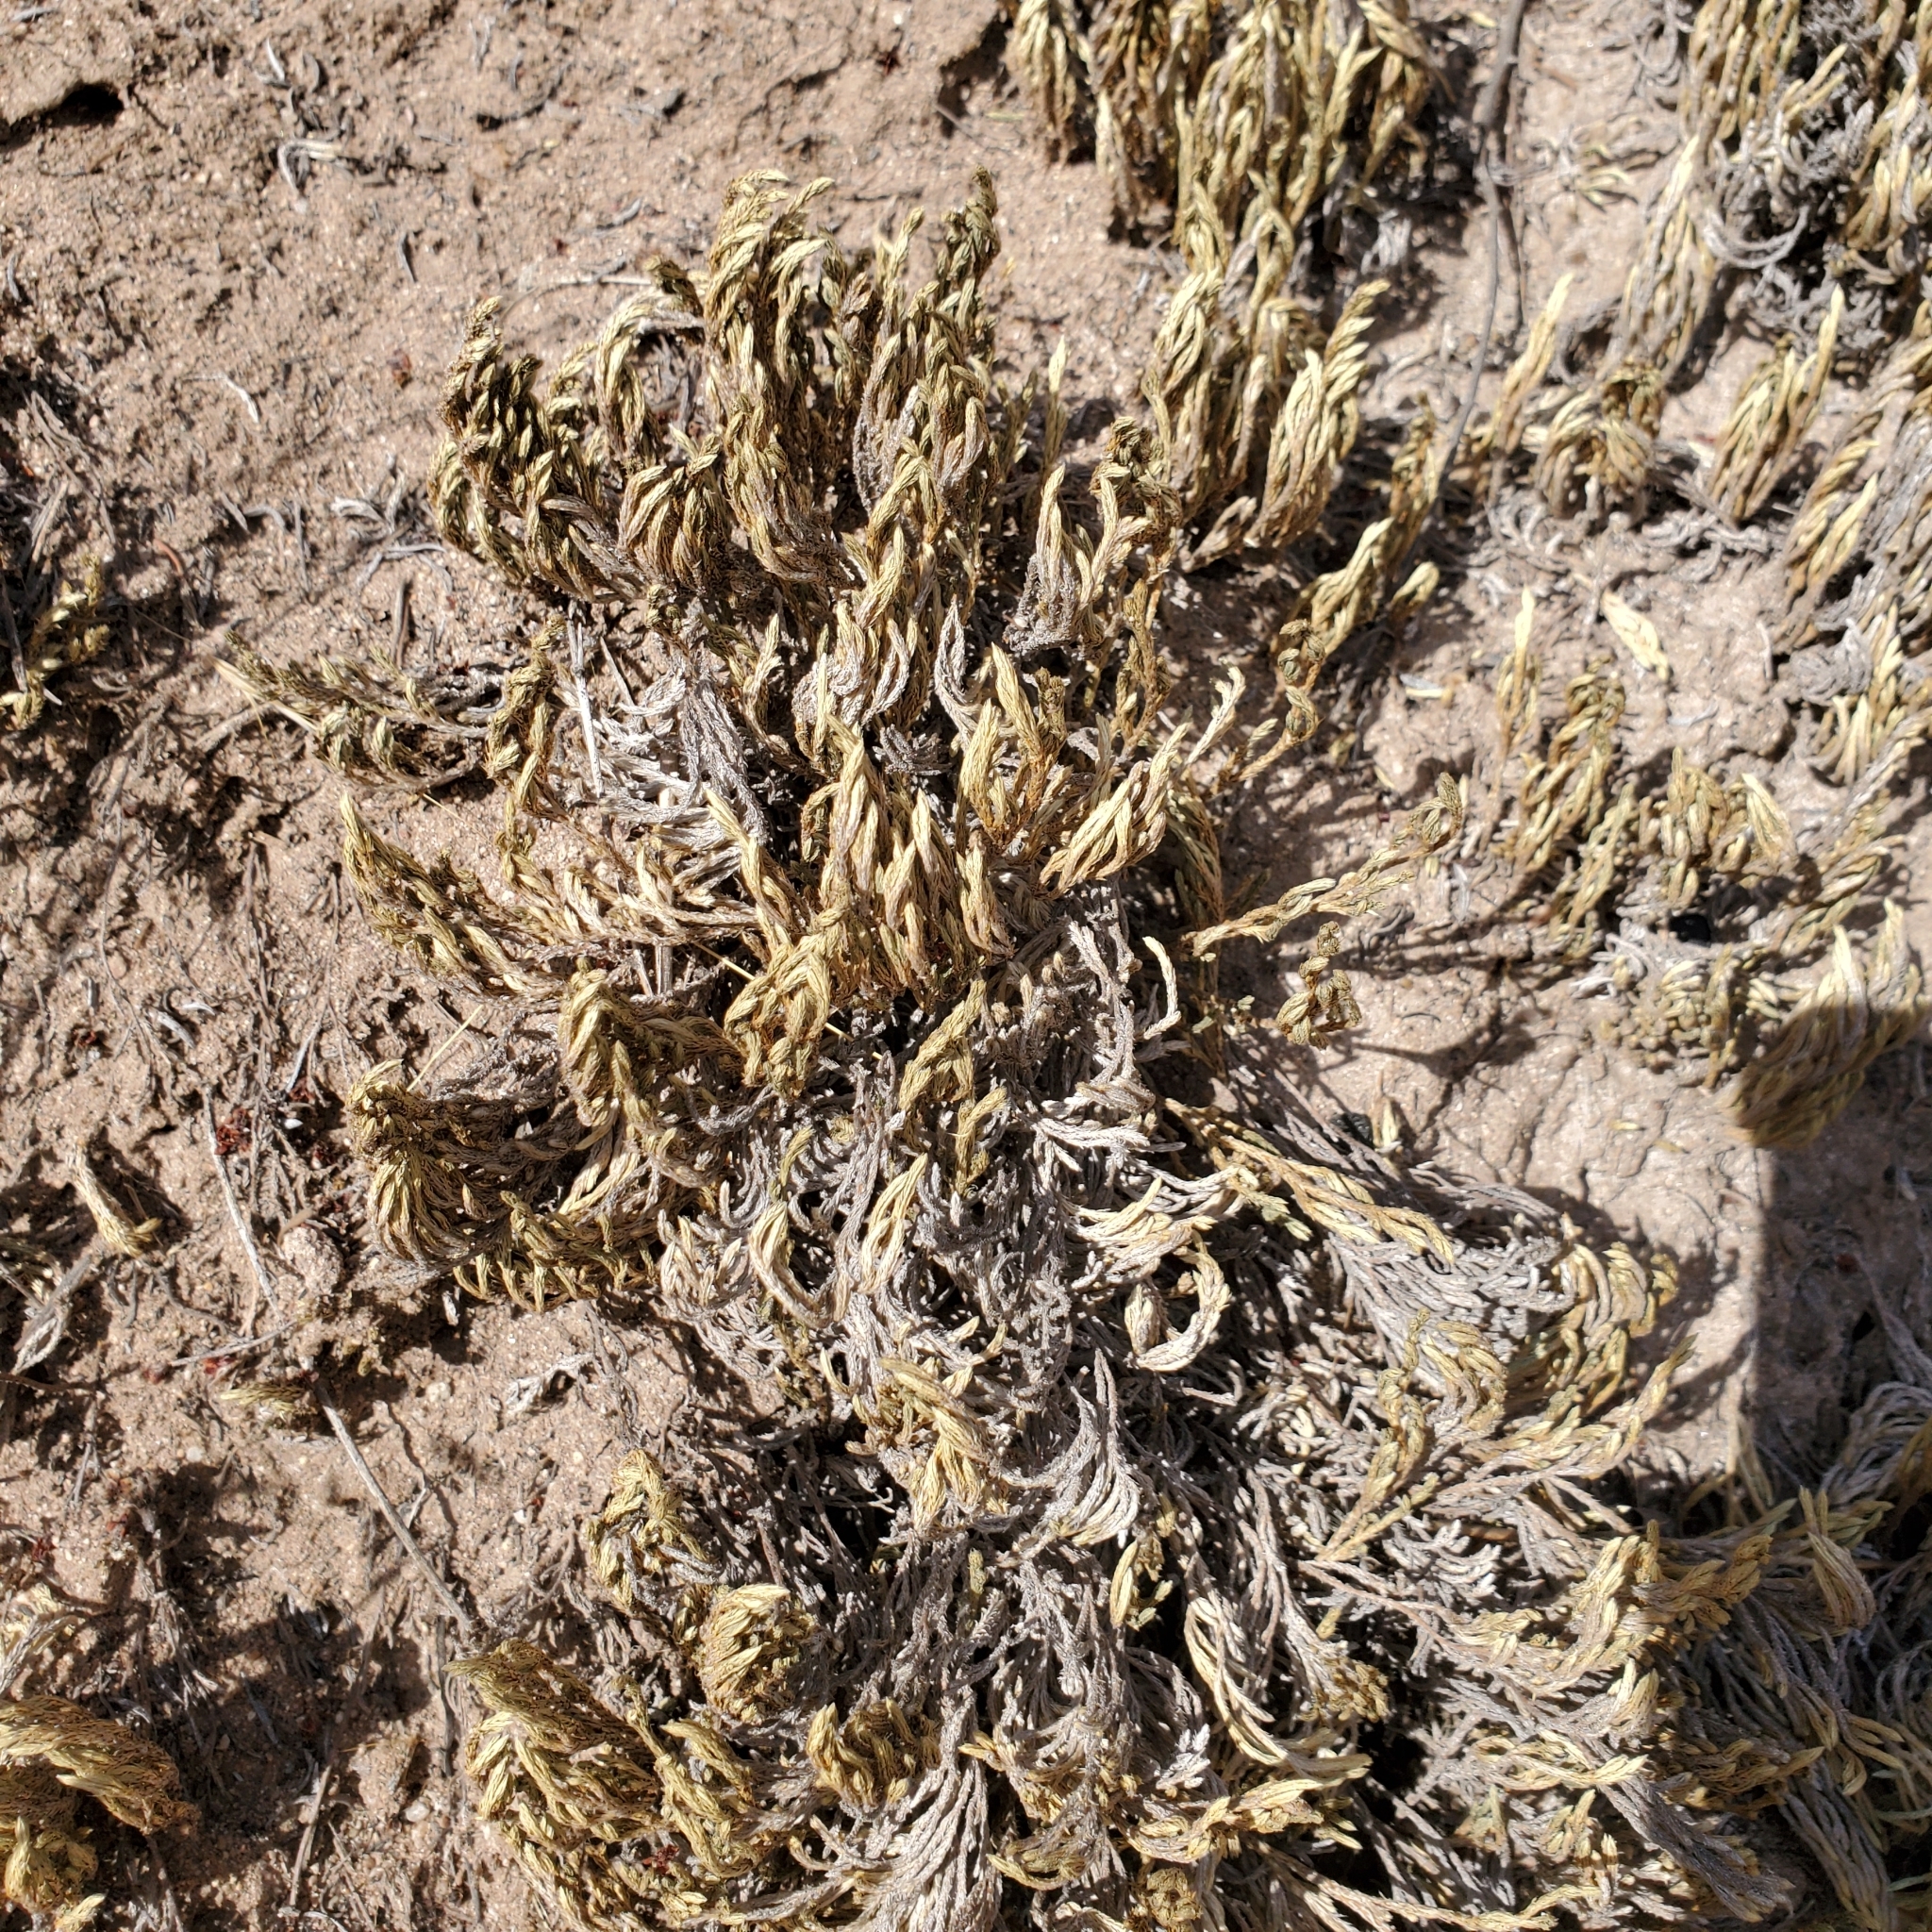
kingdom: Plantae
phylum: Tracheophyta
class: Lycopodiopsida
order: Selaginellales
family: Selaginellaceae
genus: Selaginella
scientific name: Selaginella bigelovii
